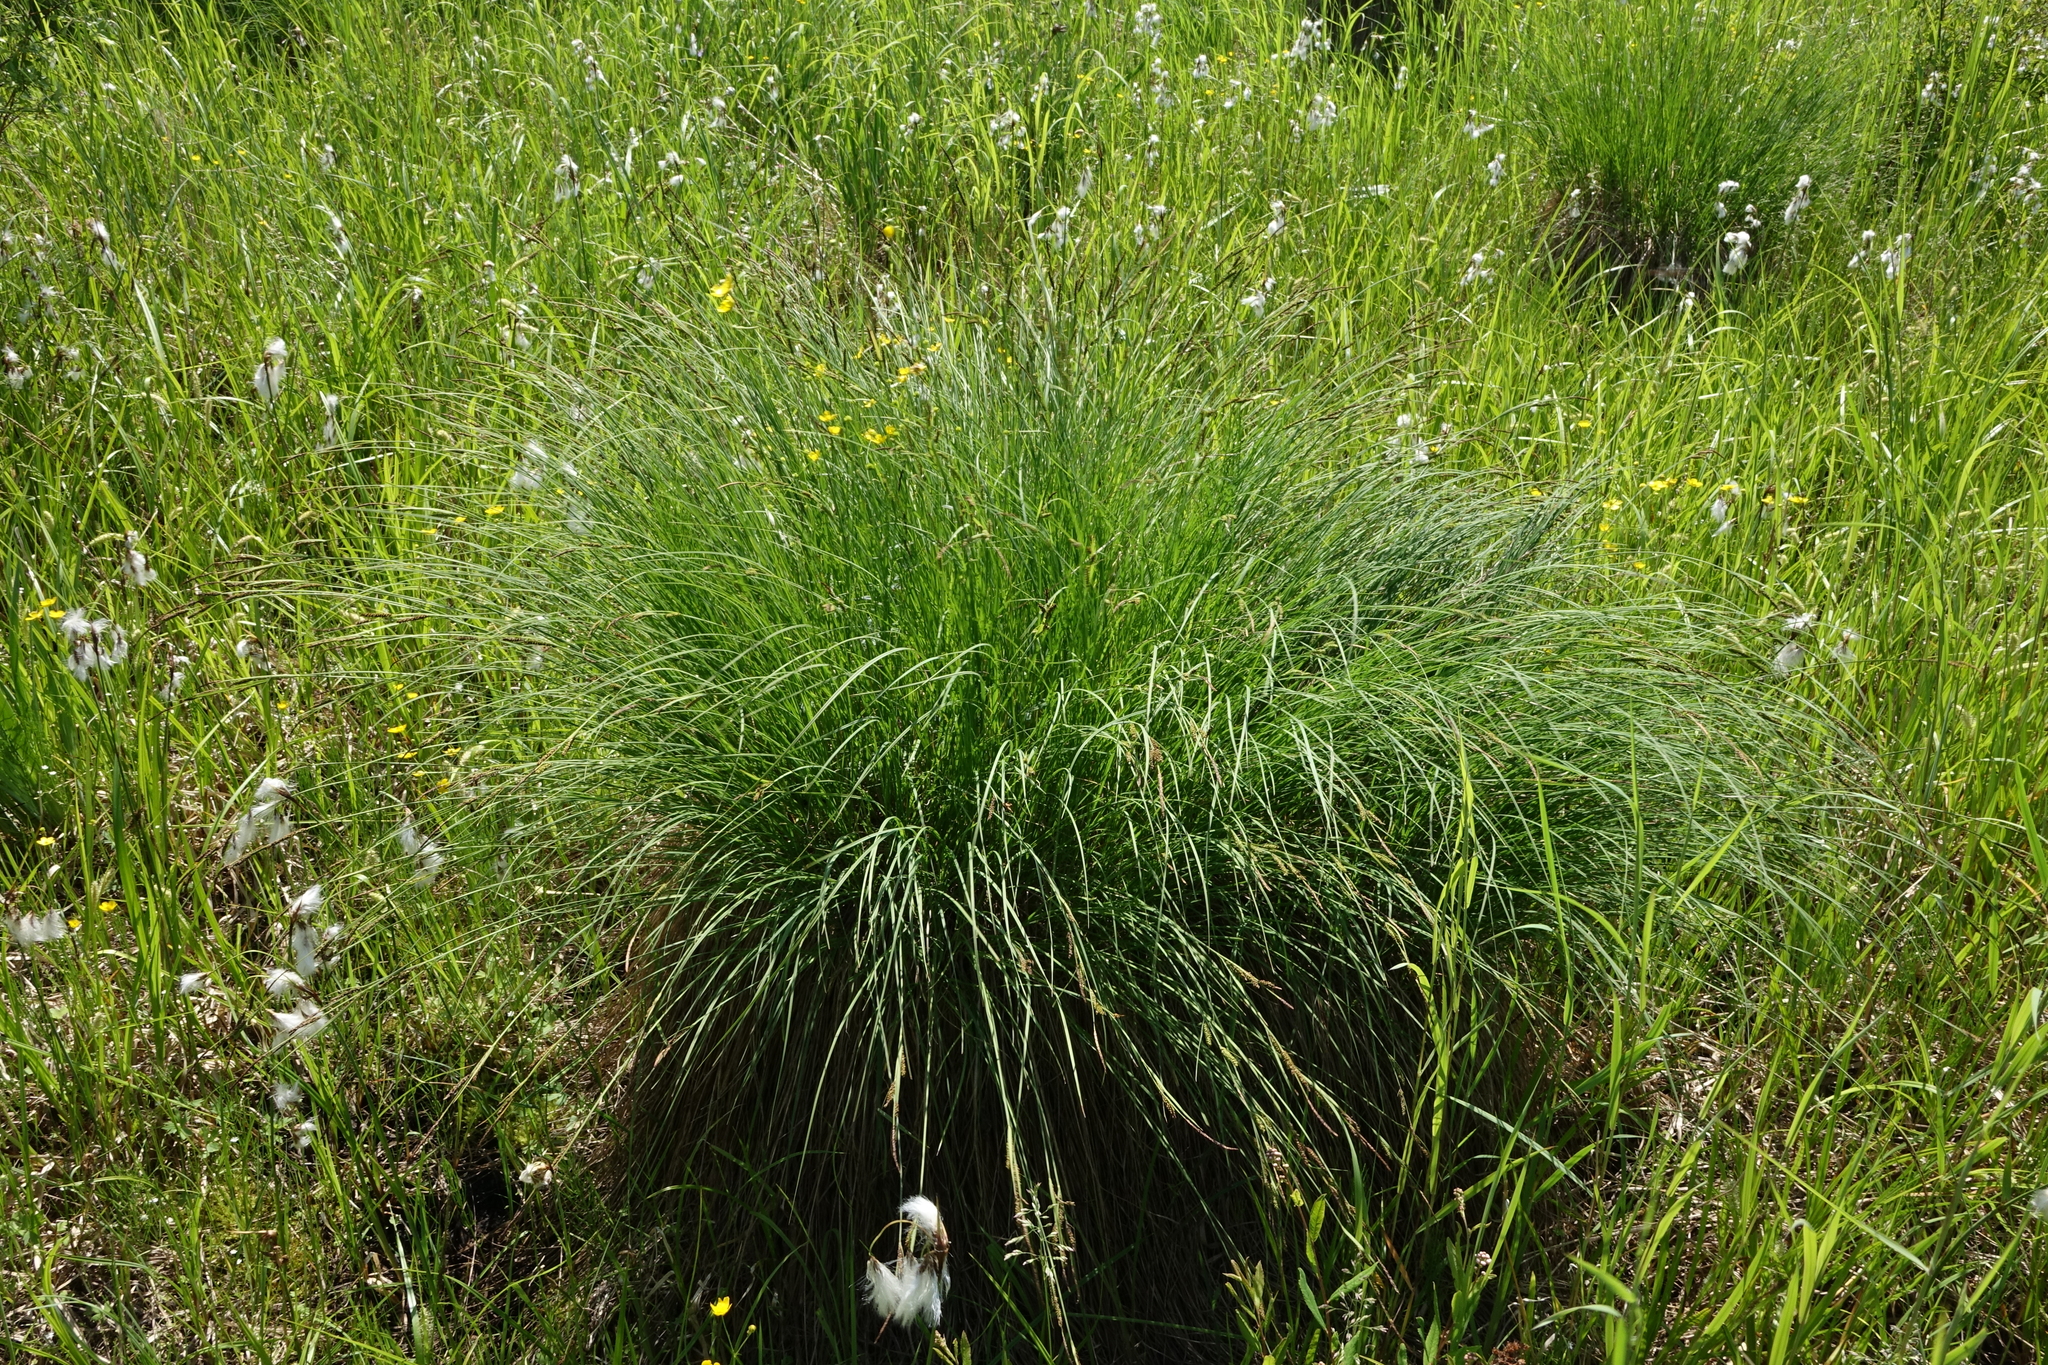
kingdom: Plantae
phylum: Tracheophyta
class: Liliopsida
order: Poales
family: Cyperaceae
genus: Carex
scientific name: Carex cespitosa
